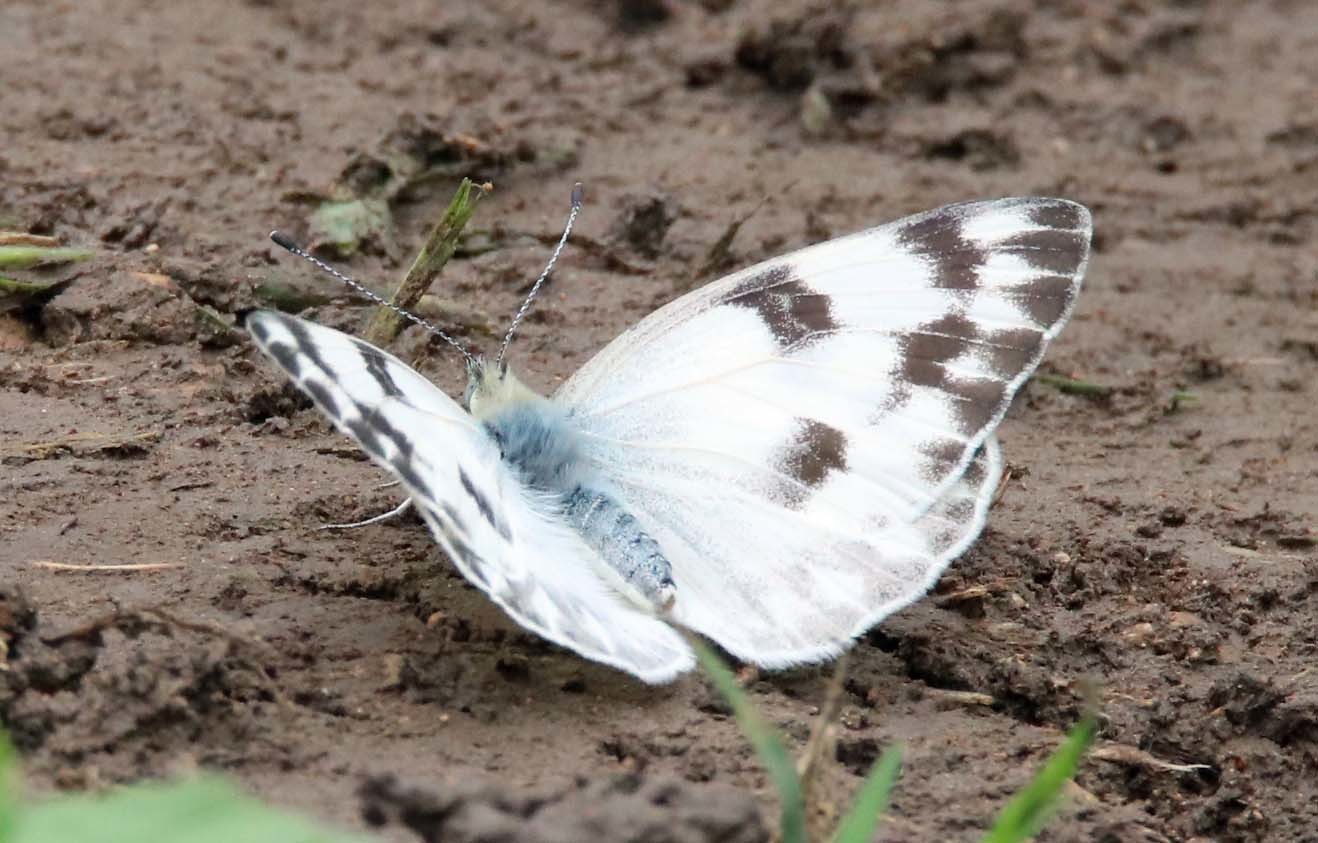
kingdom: Animalia
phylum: Arthropoda
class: Insecta
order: Lepidoptera
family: Pieridae
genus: Pontia
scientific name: Pontia protodice
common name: Checkered white
